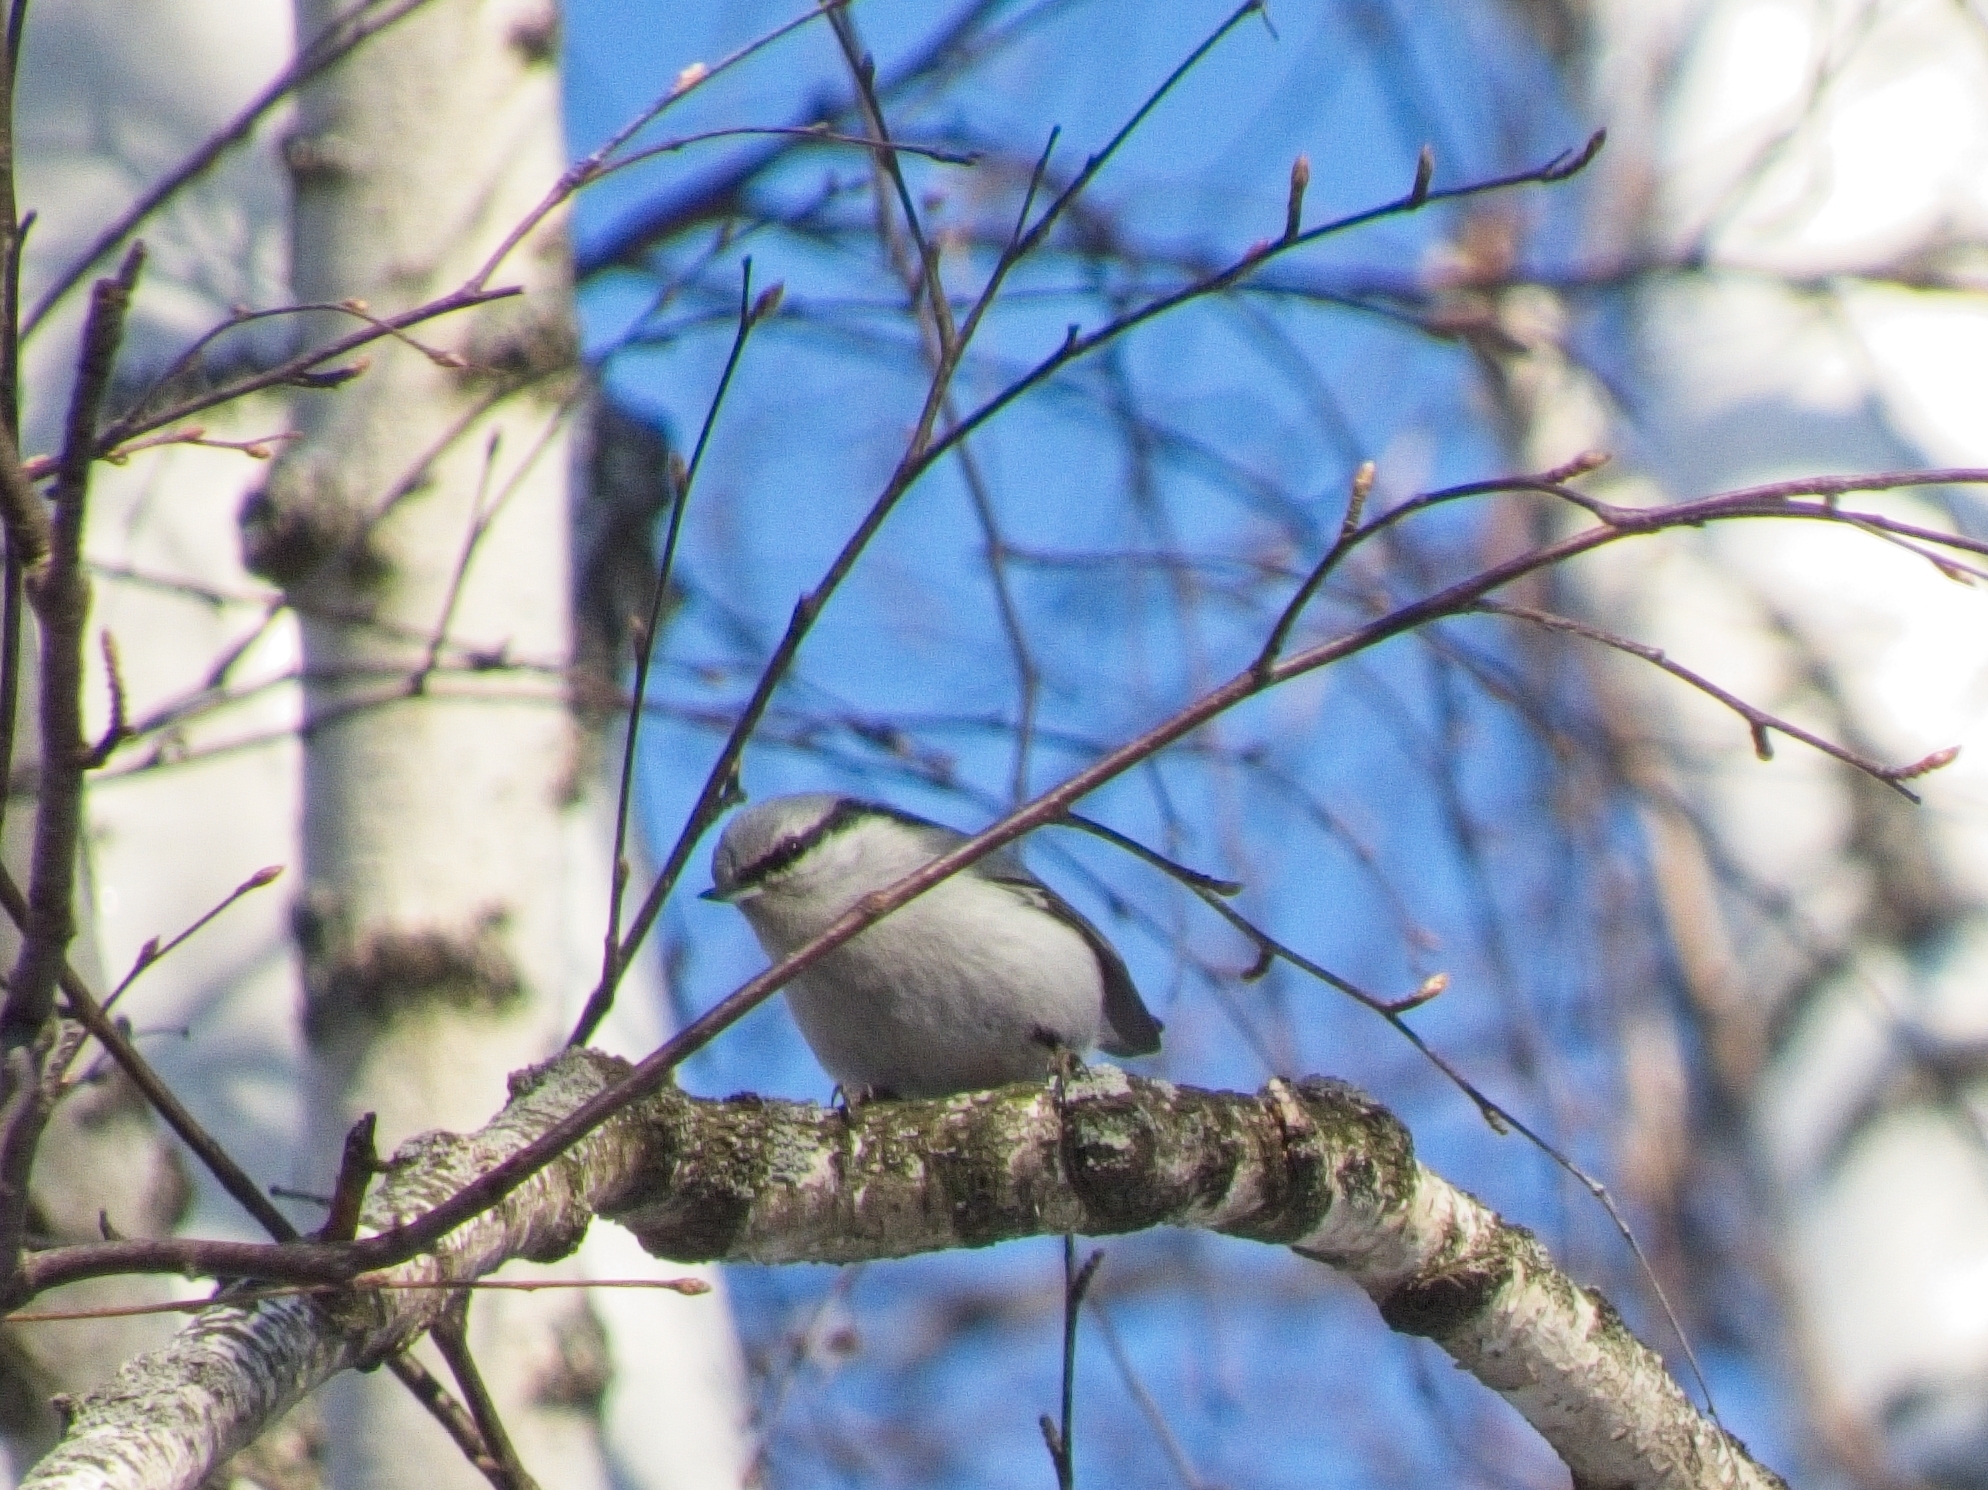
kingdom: Animalia
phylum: Chordata
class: Aves
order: Passeriformes
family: Sittidae
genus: Sitta
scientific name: Sitta europaea
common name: Eurasian nuthatch
